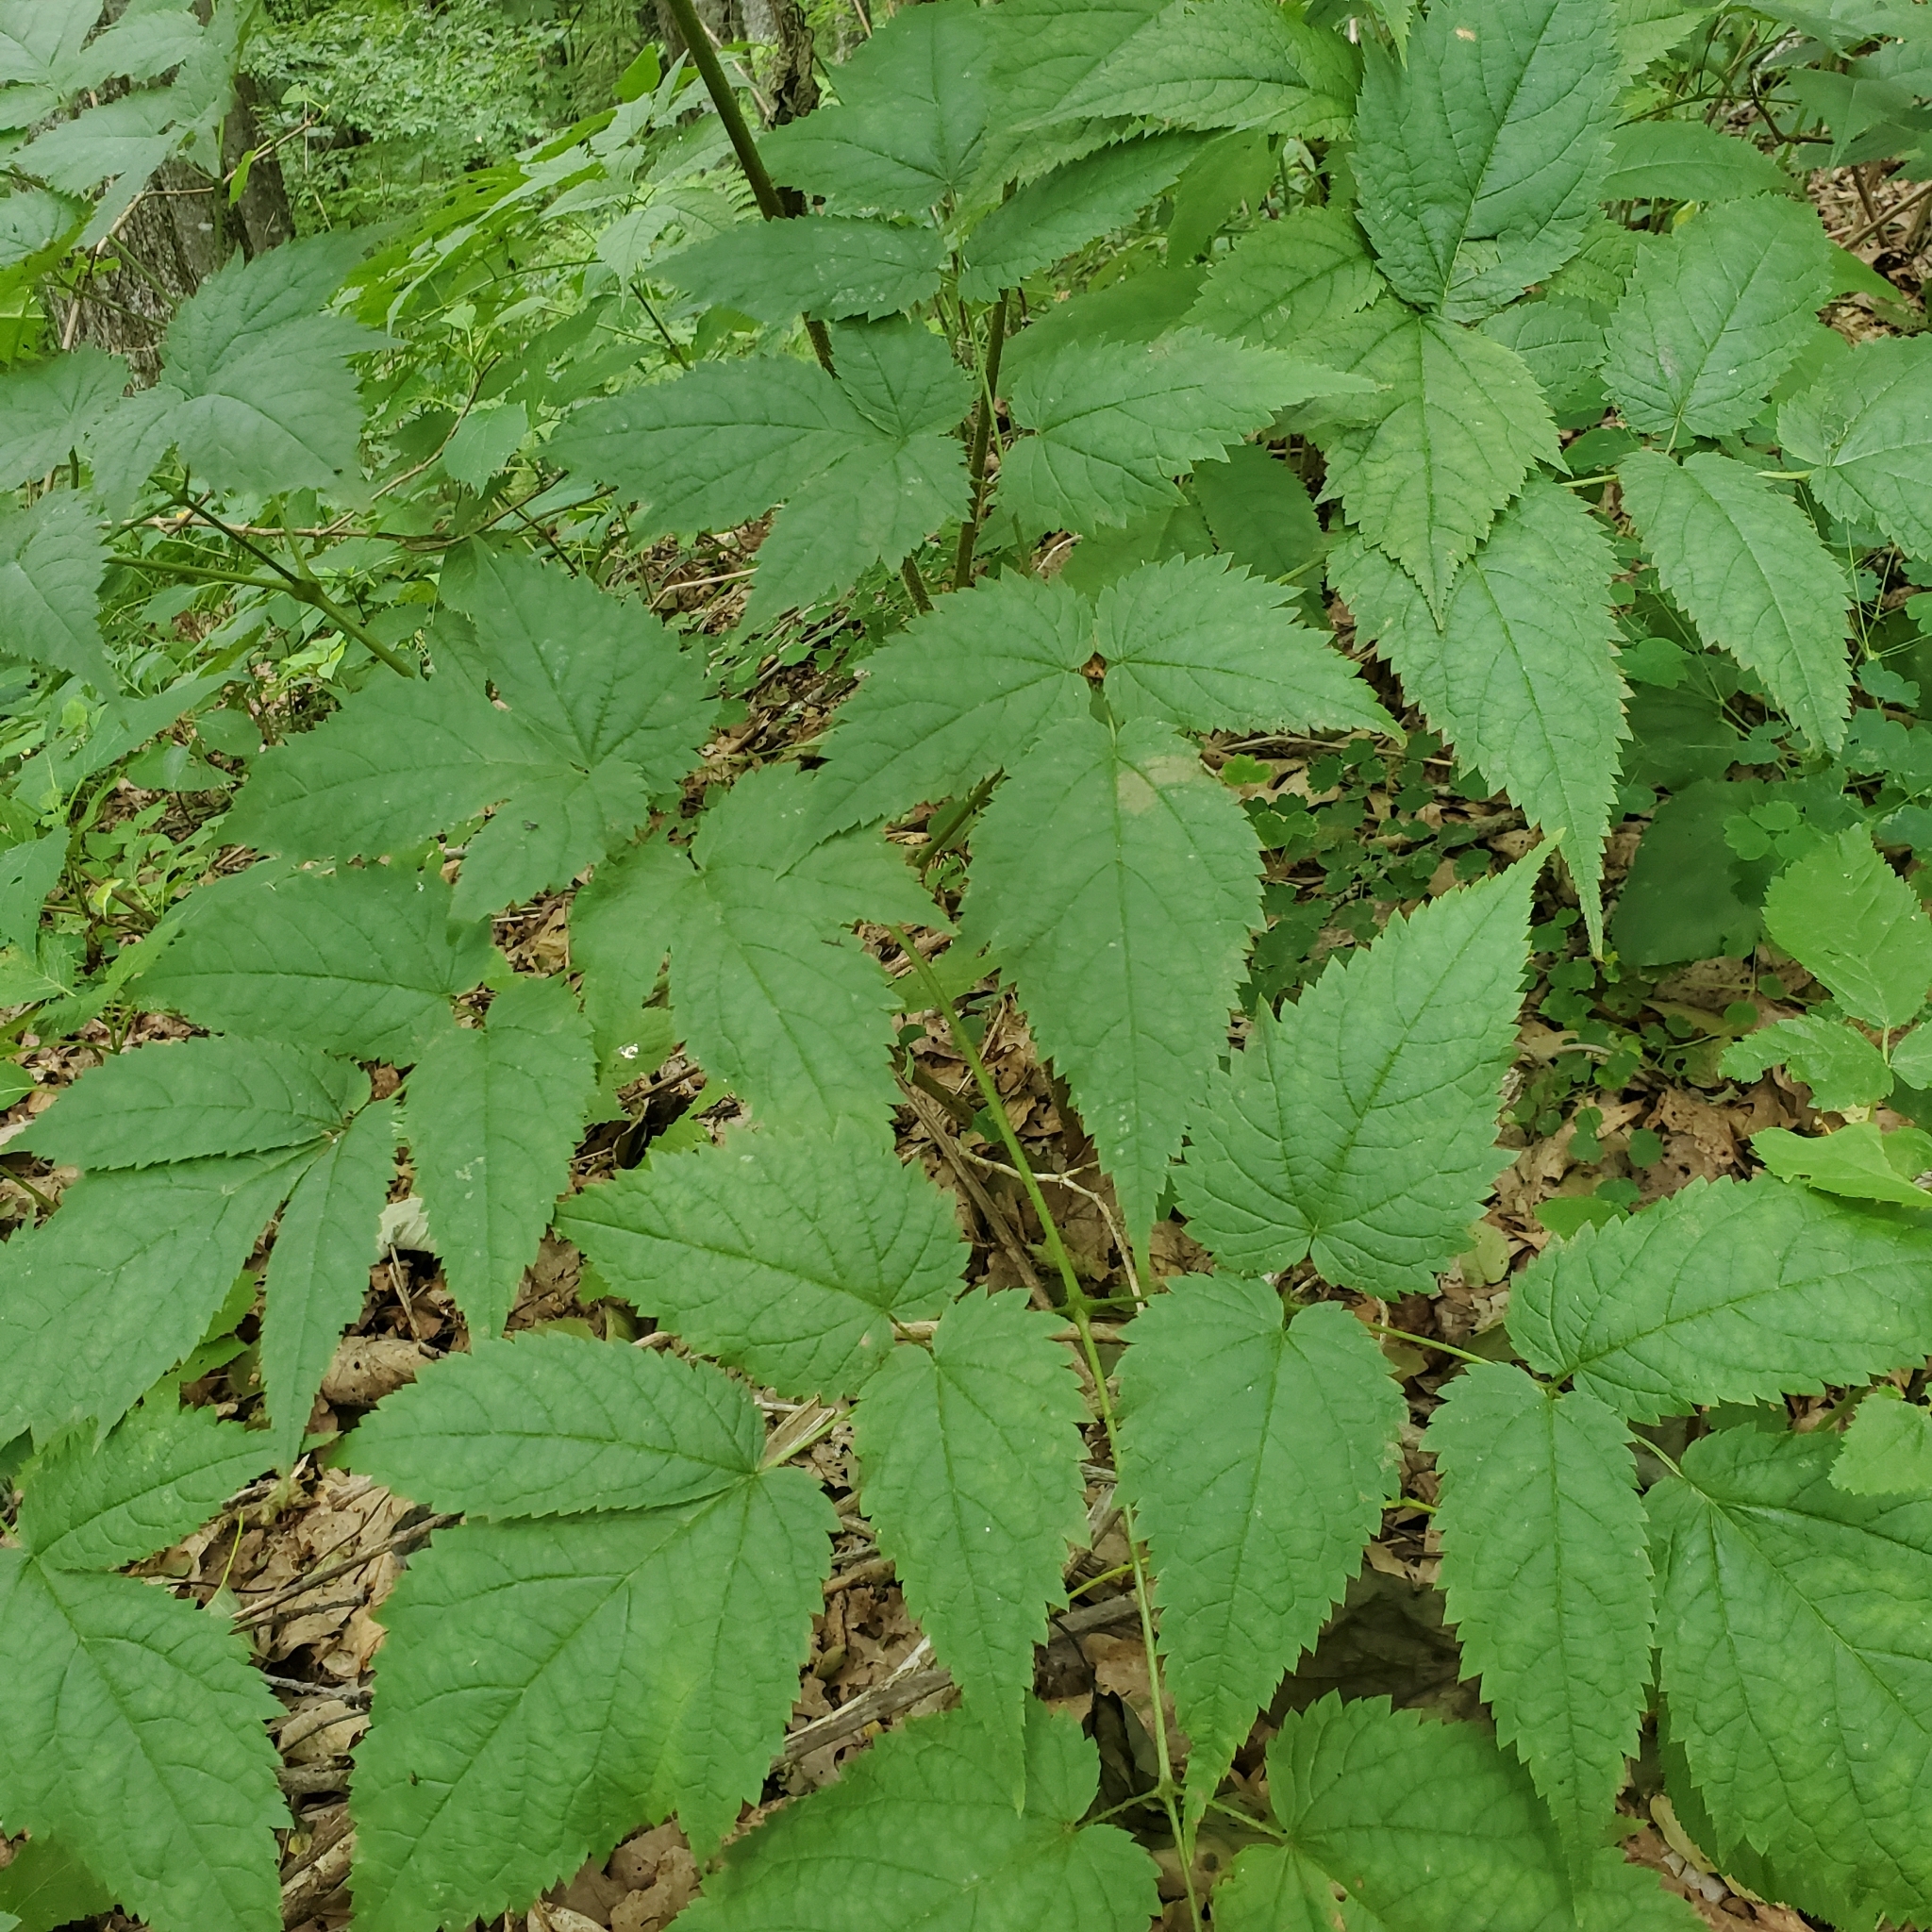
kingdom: Plantae
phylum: Tracheophyta
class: Magnoliopsida
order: Saxifragales
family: Saxifragaceae
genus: Astilbe
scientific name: Astilbe biternata
